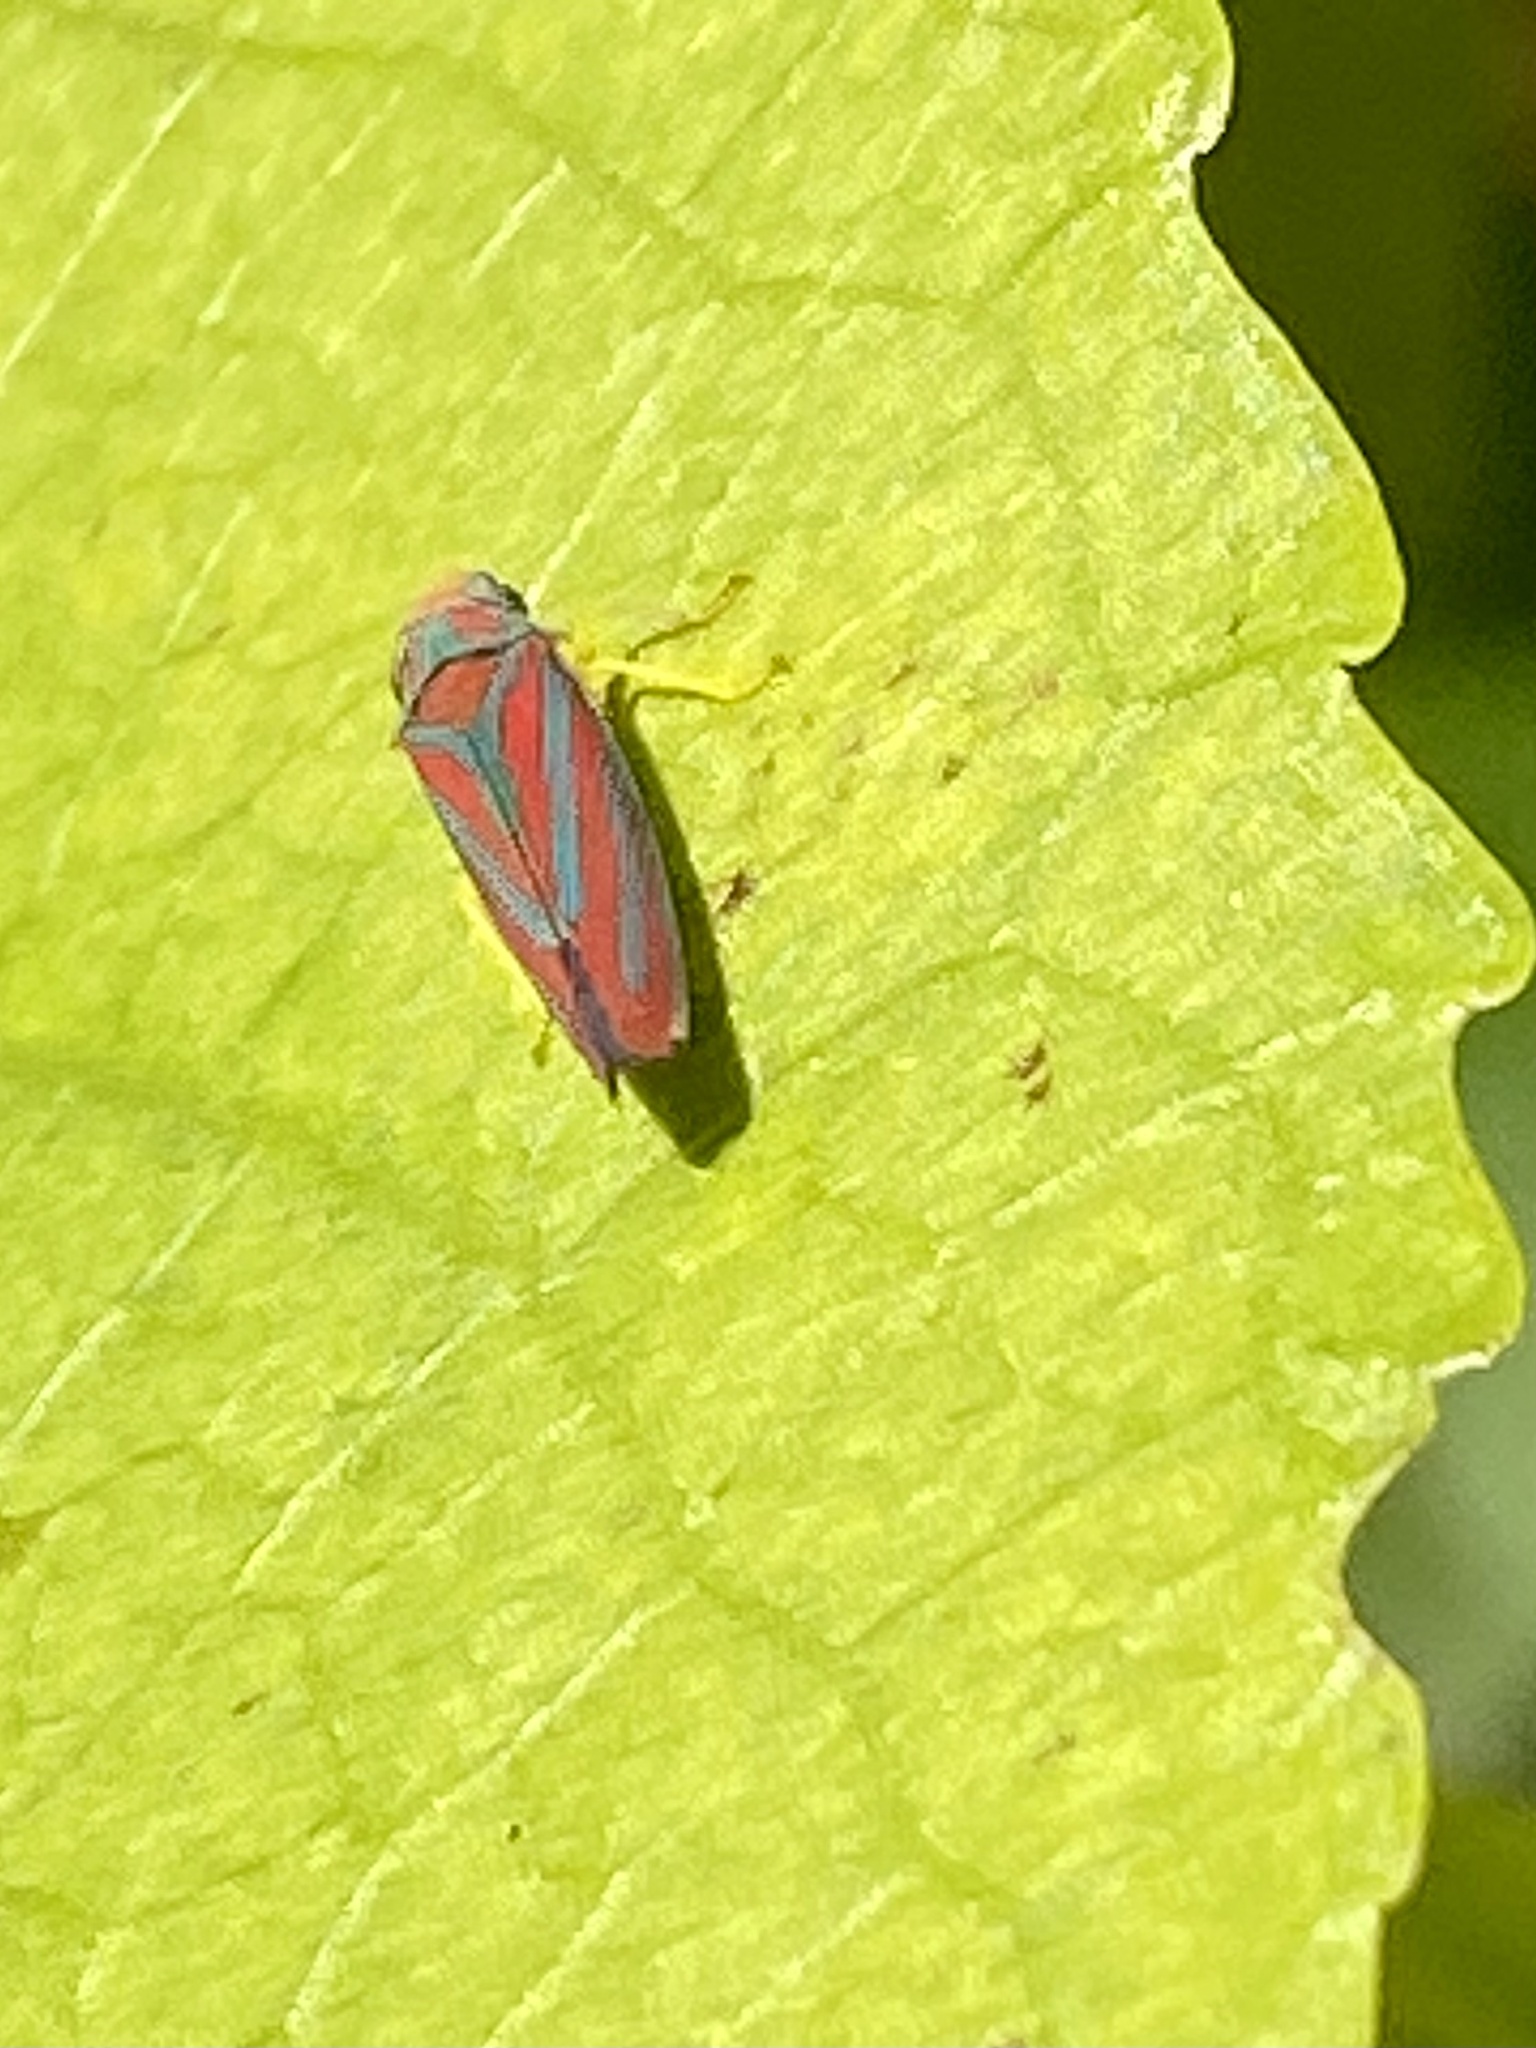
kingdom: Animalia
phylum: Arthropoda
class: Insecta
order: Hemiptera
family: Cicadellidae
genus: Graphocephala
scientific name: Graphocephala coccinea
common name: Candy-striped leafhopper
